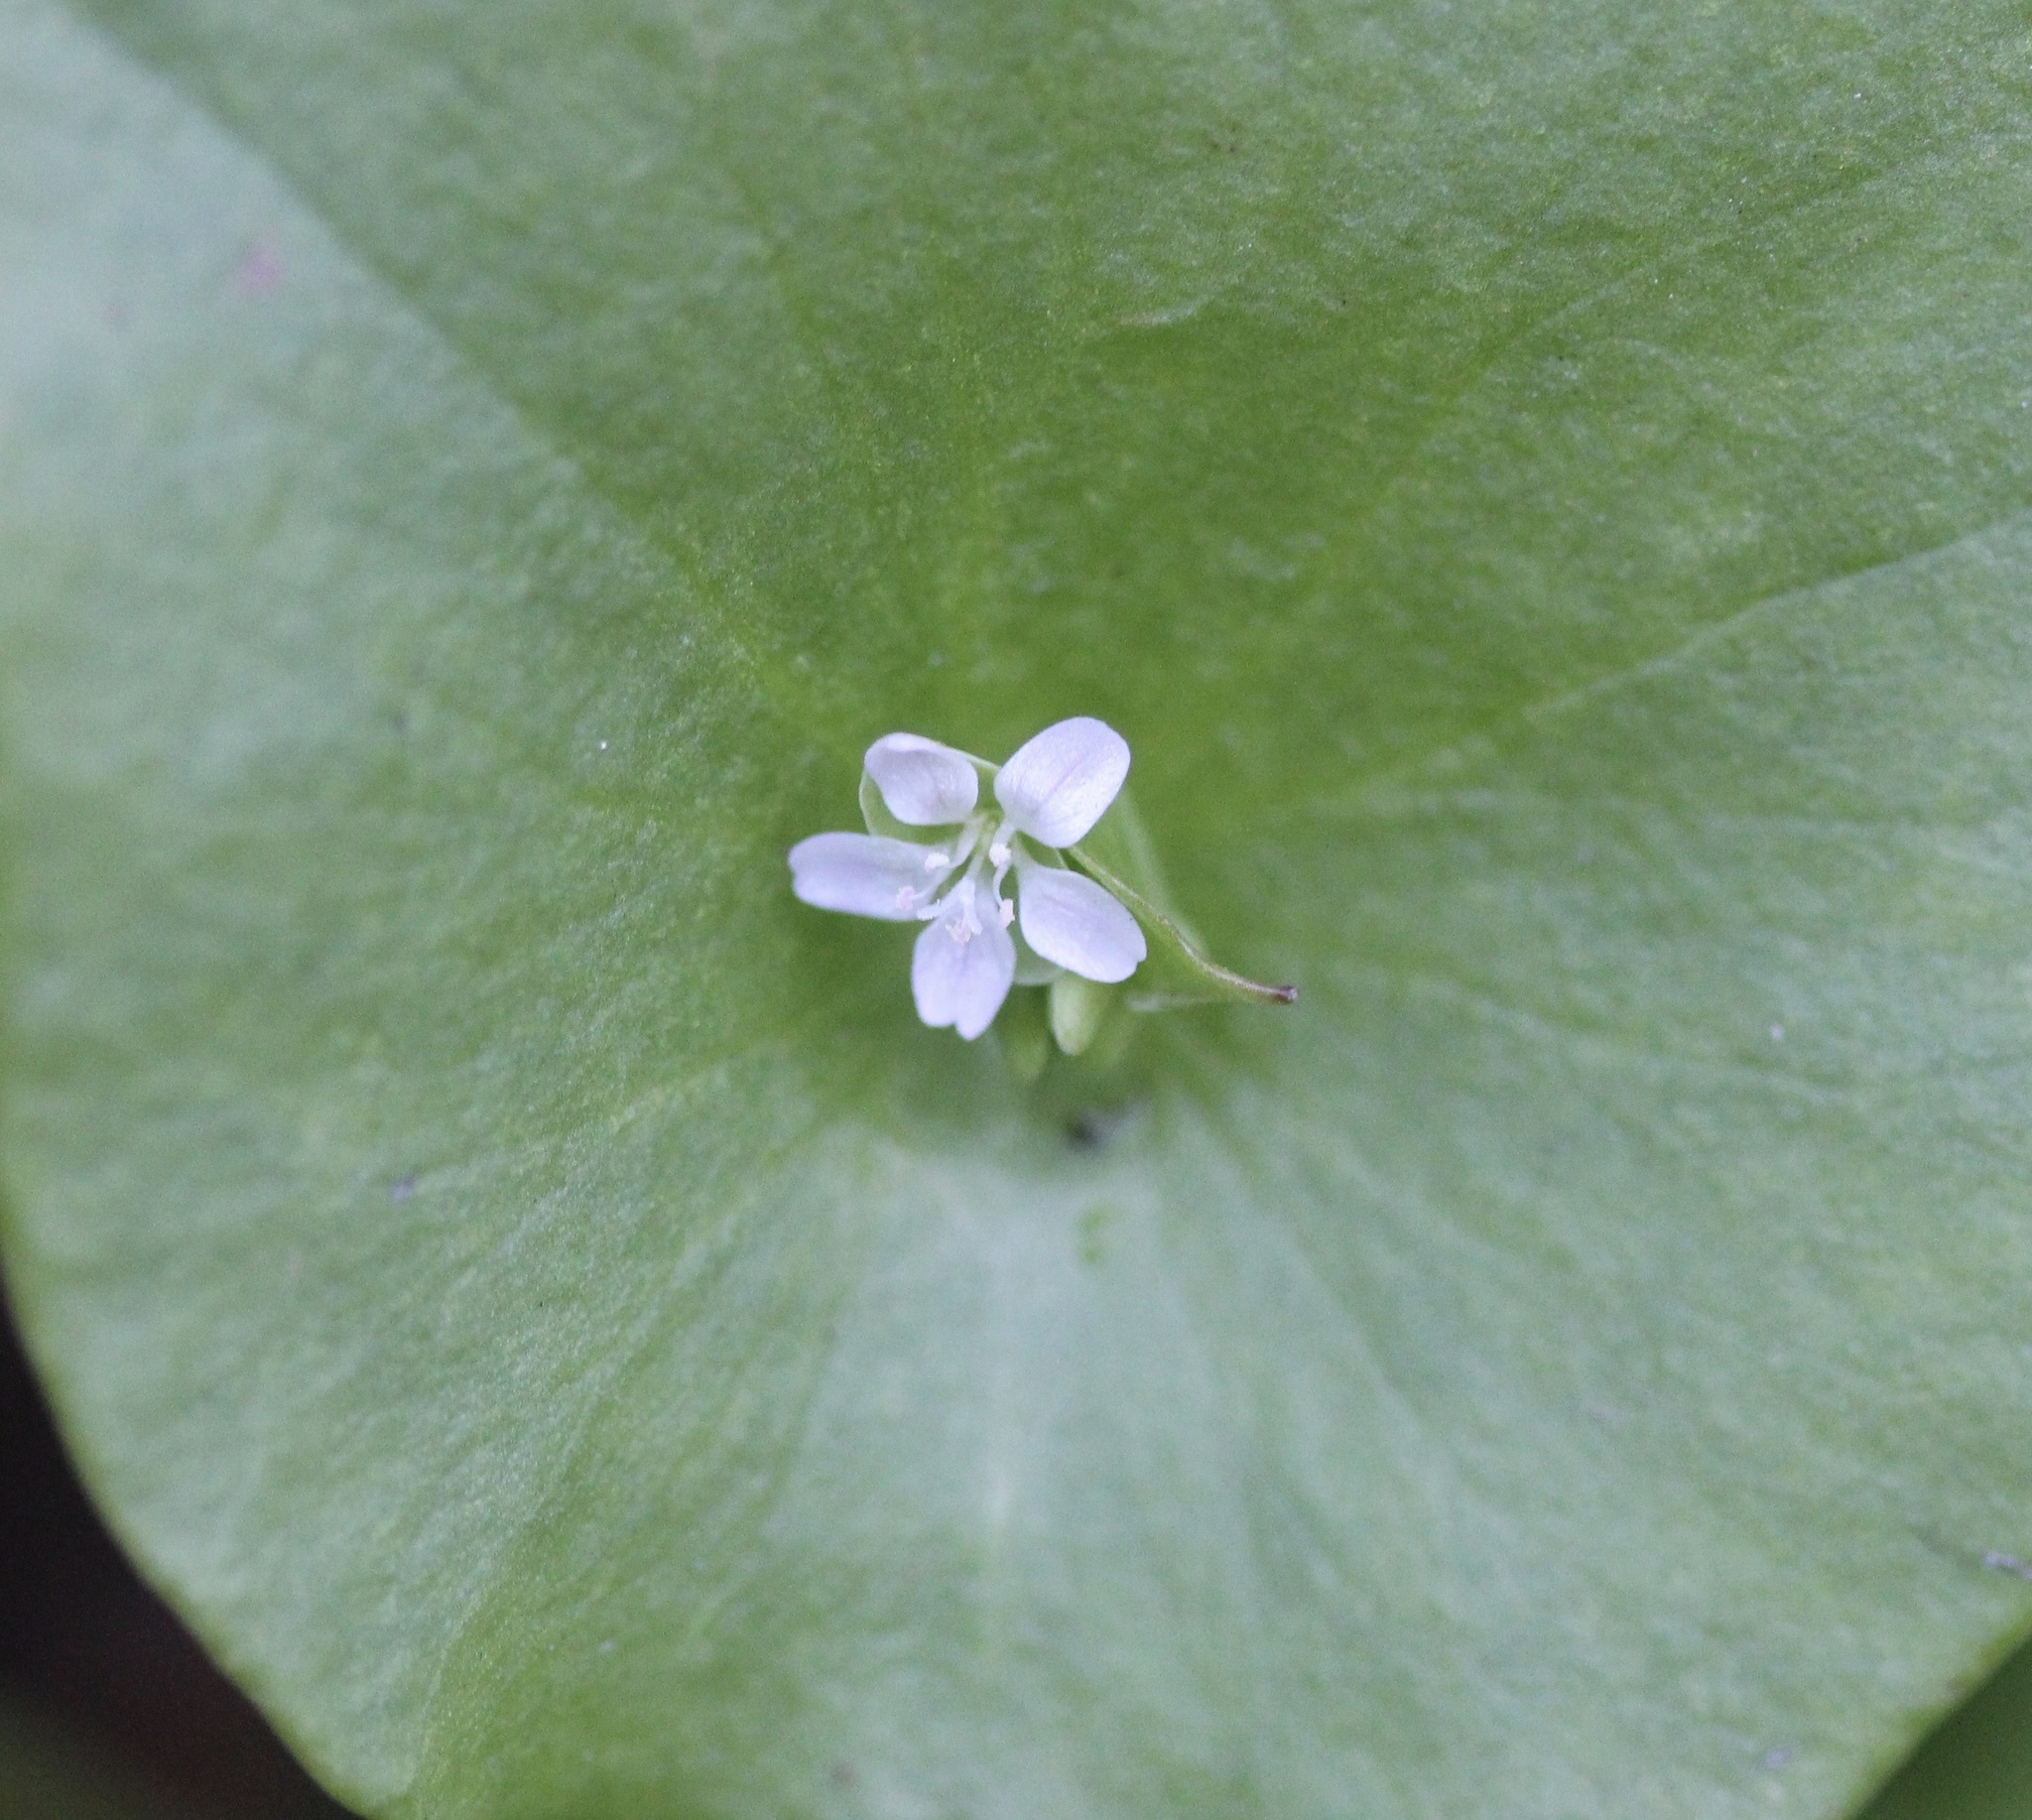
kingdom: Plantae
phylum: Tracheophyta
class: Magnoliopsida
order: Caryophyllales
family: Montiaceae
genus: Claytonia
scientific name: Claytonia perfoliata
